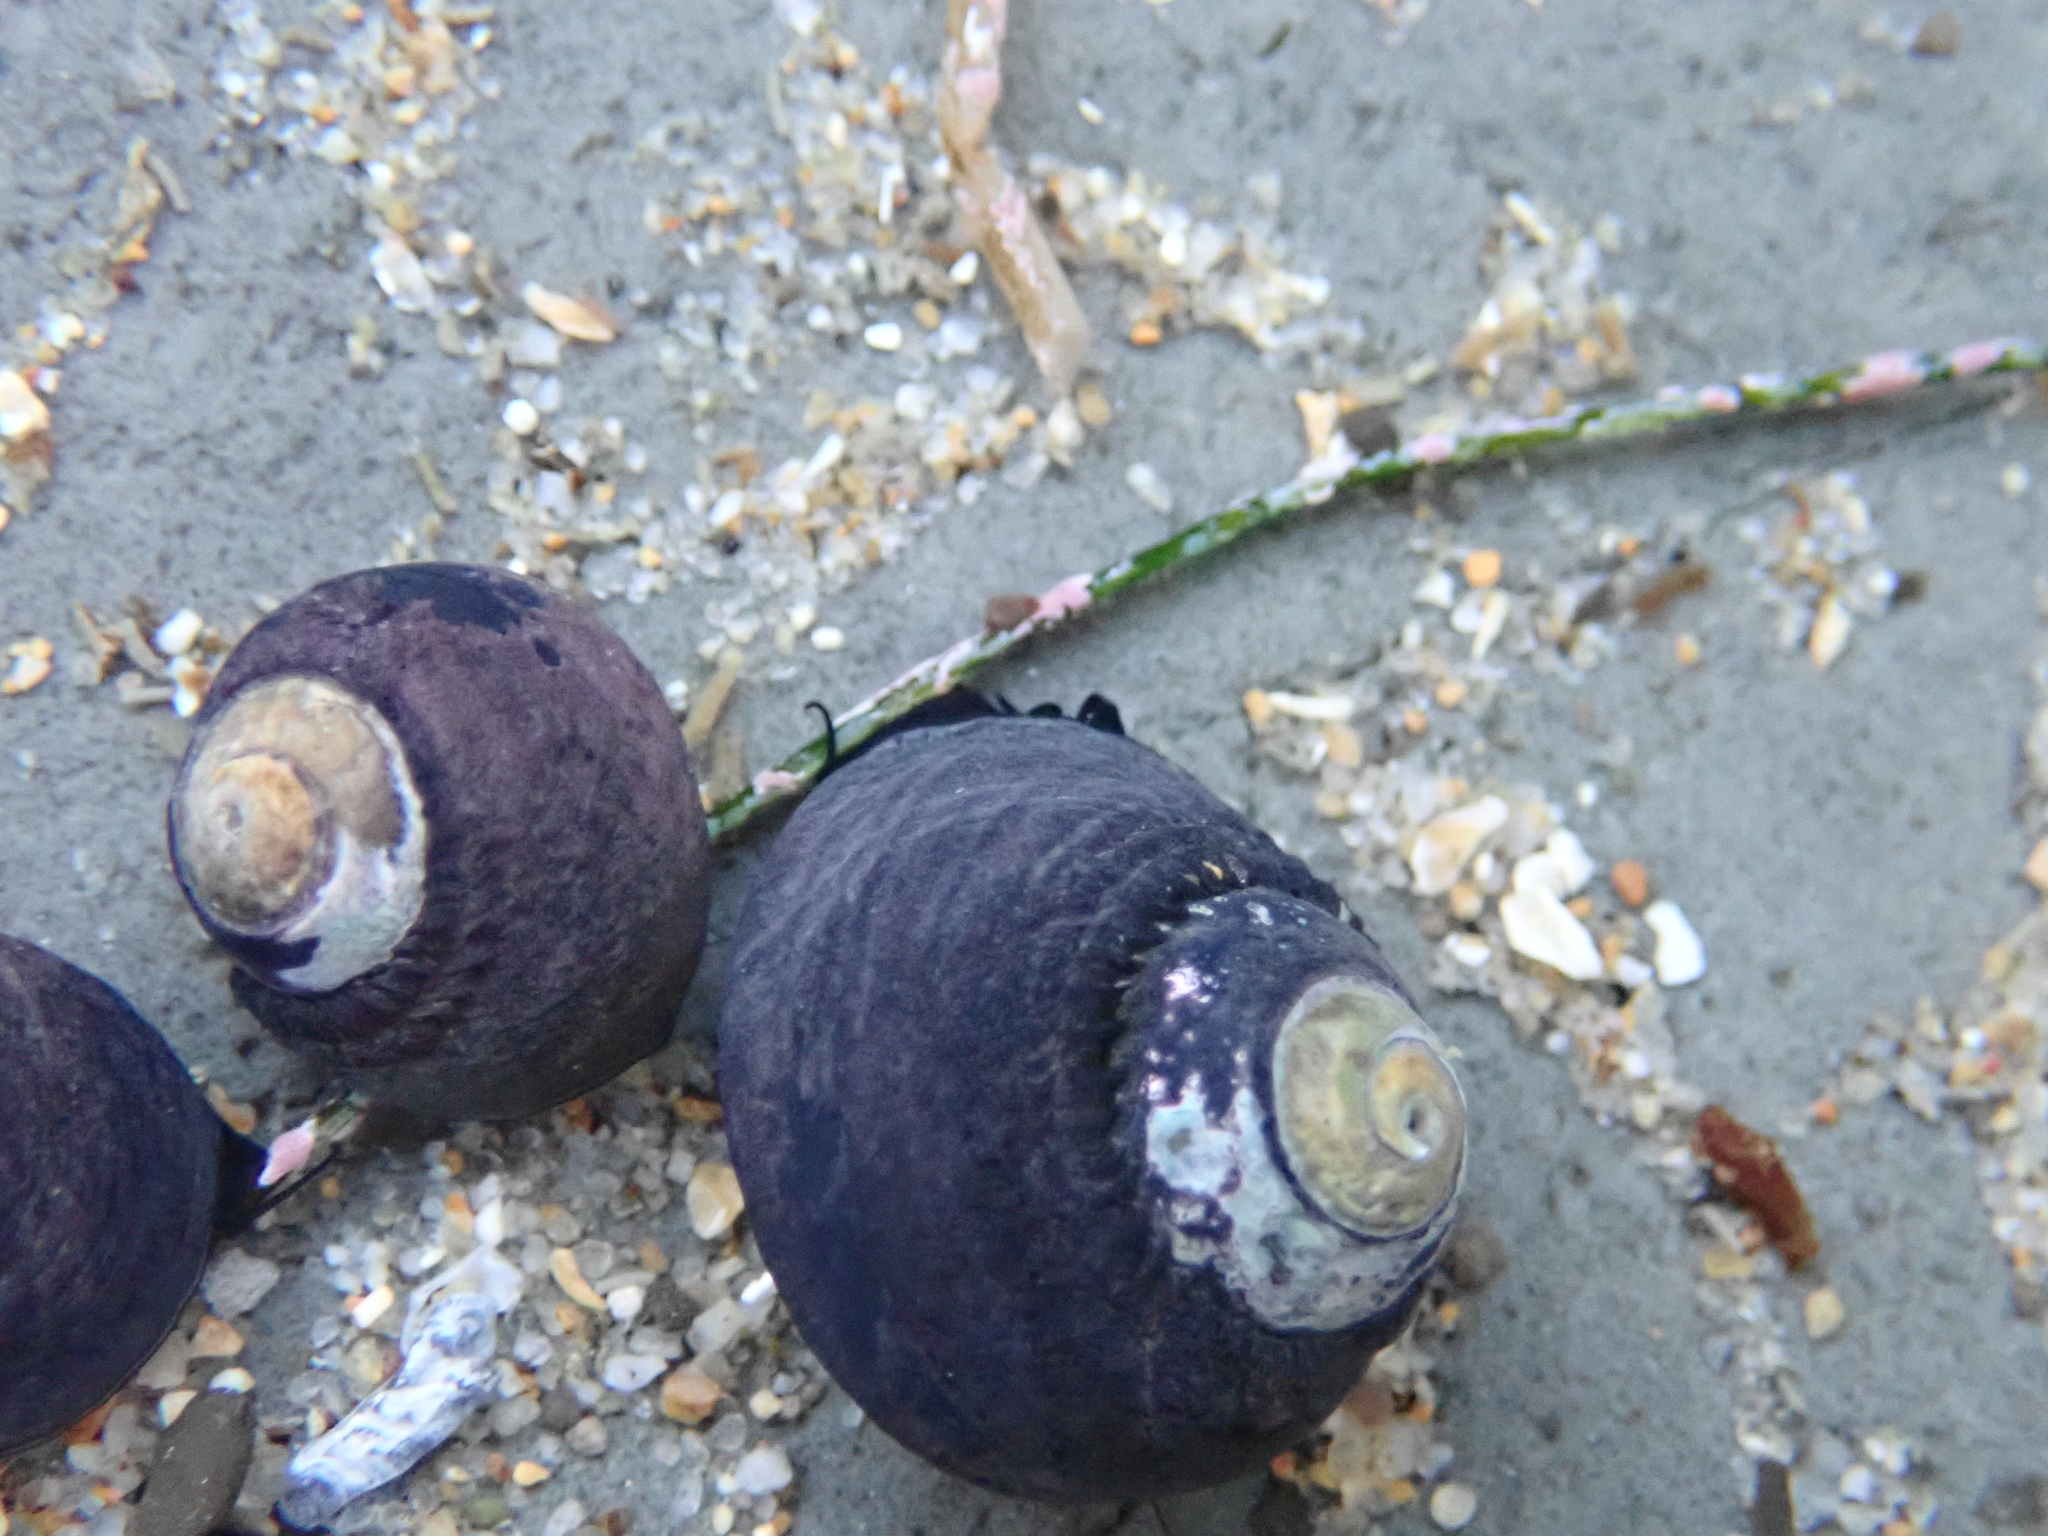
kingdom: Animalia
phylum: Mollusca
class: Gastropoda
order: Trochida
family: Tegulidae
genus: Tegula
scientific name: Tegula funebralis
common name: Black tegula
